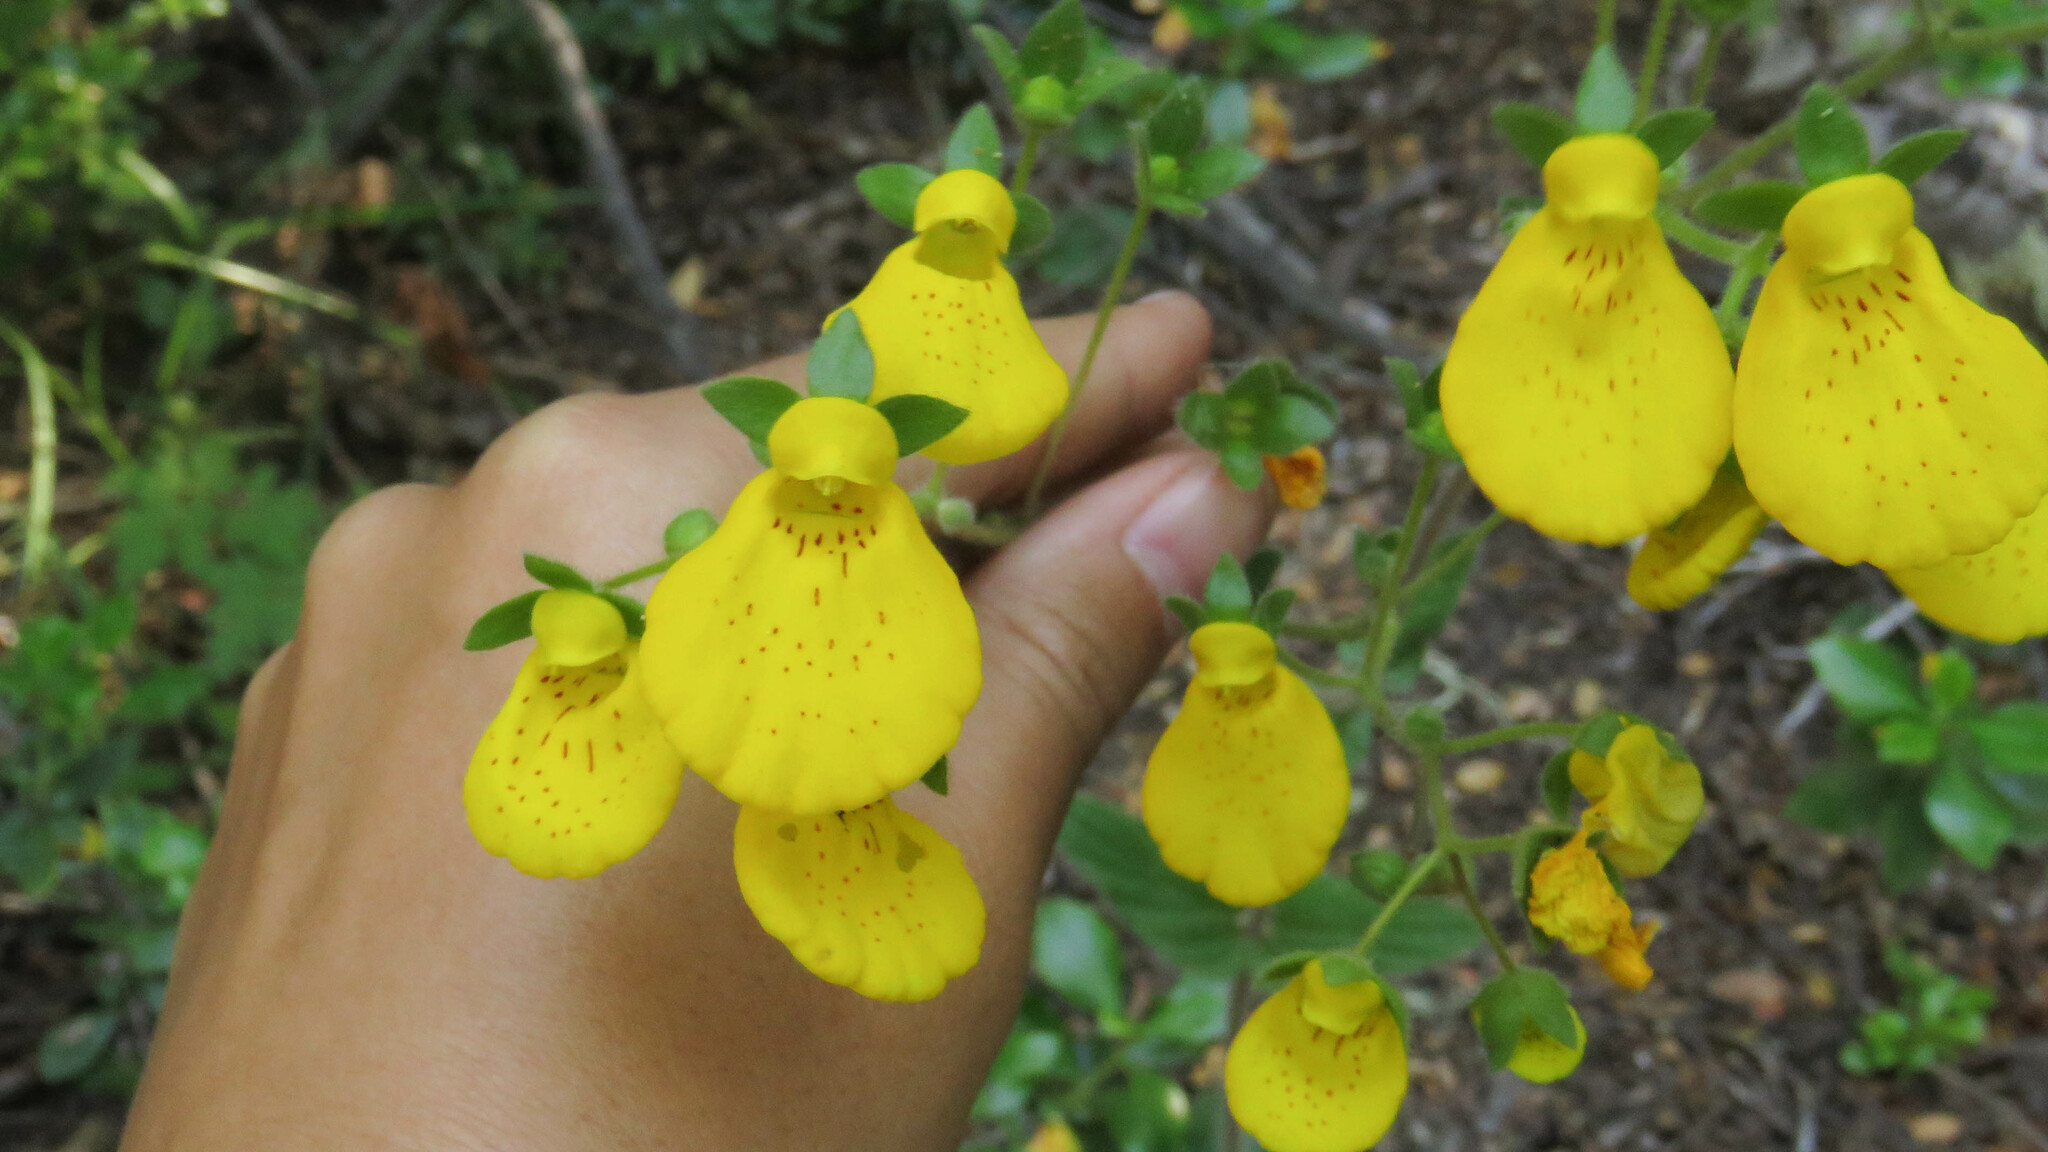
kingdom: Plantae
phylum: Tracheophyta
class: Magnoliopsida
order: Lamiales
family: Calceolariaceae
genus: Calceolaria
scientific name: Calceolaria crenatiflora
